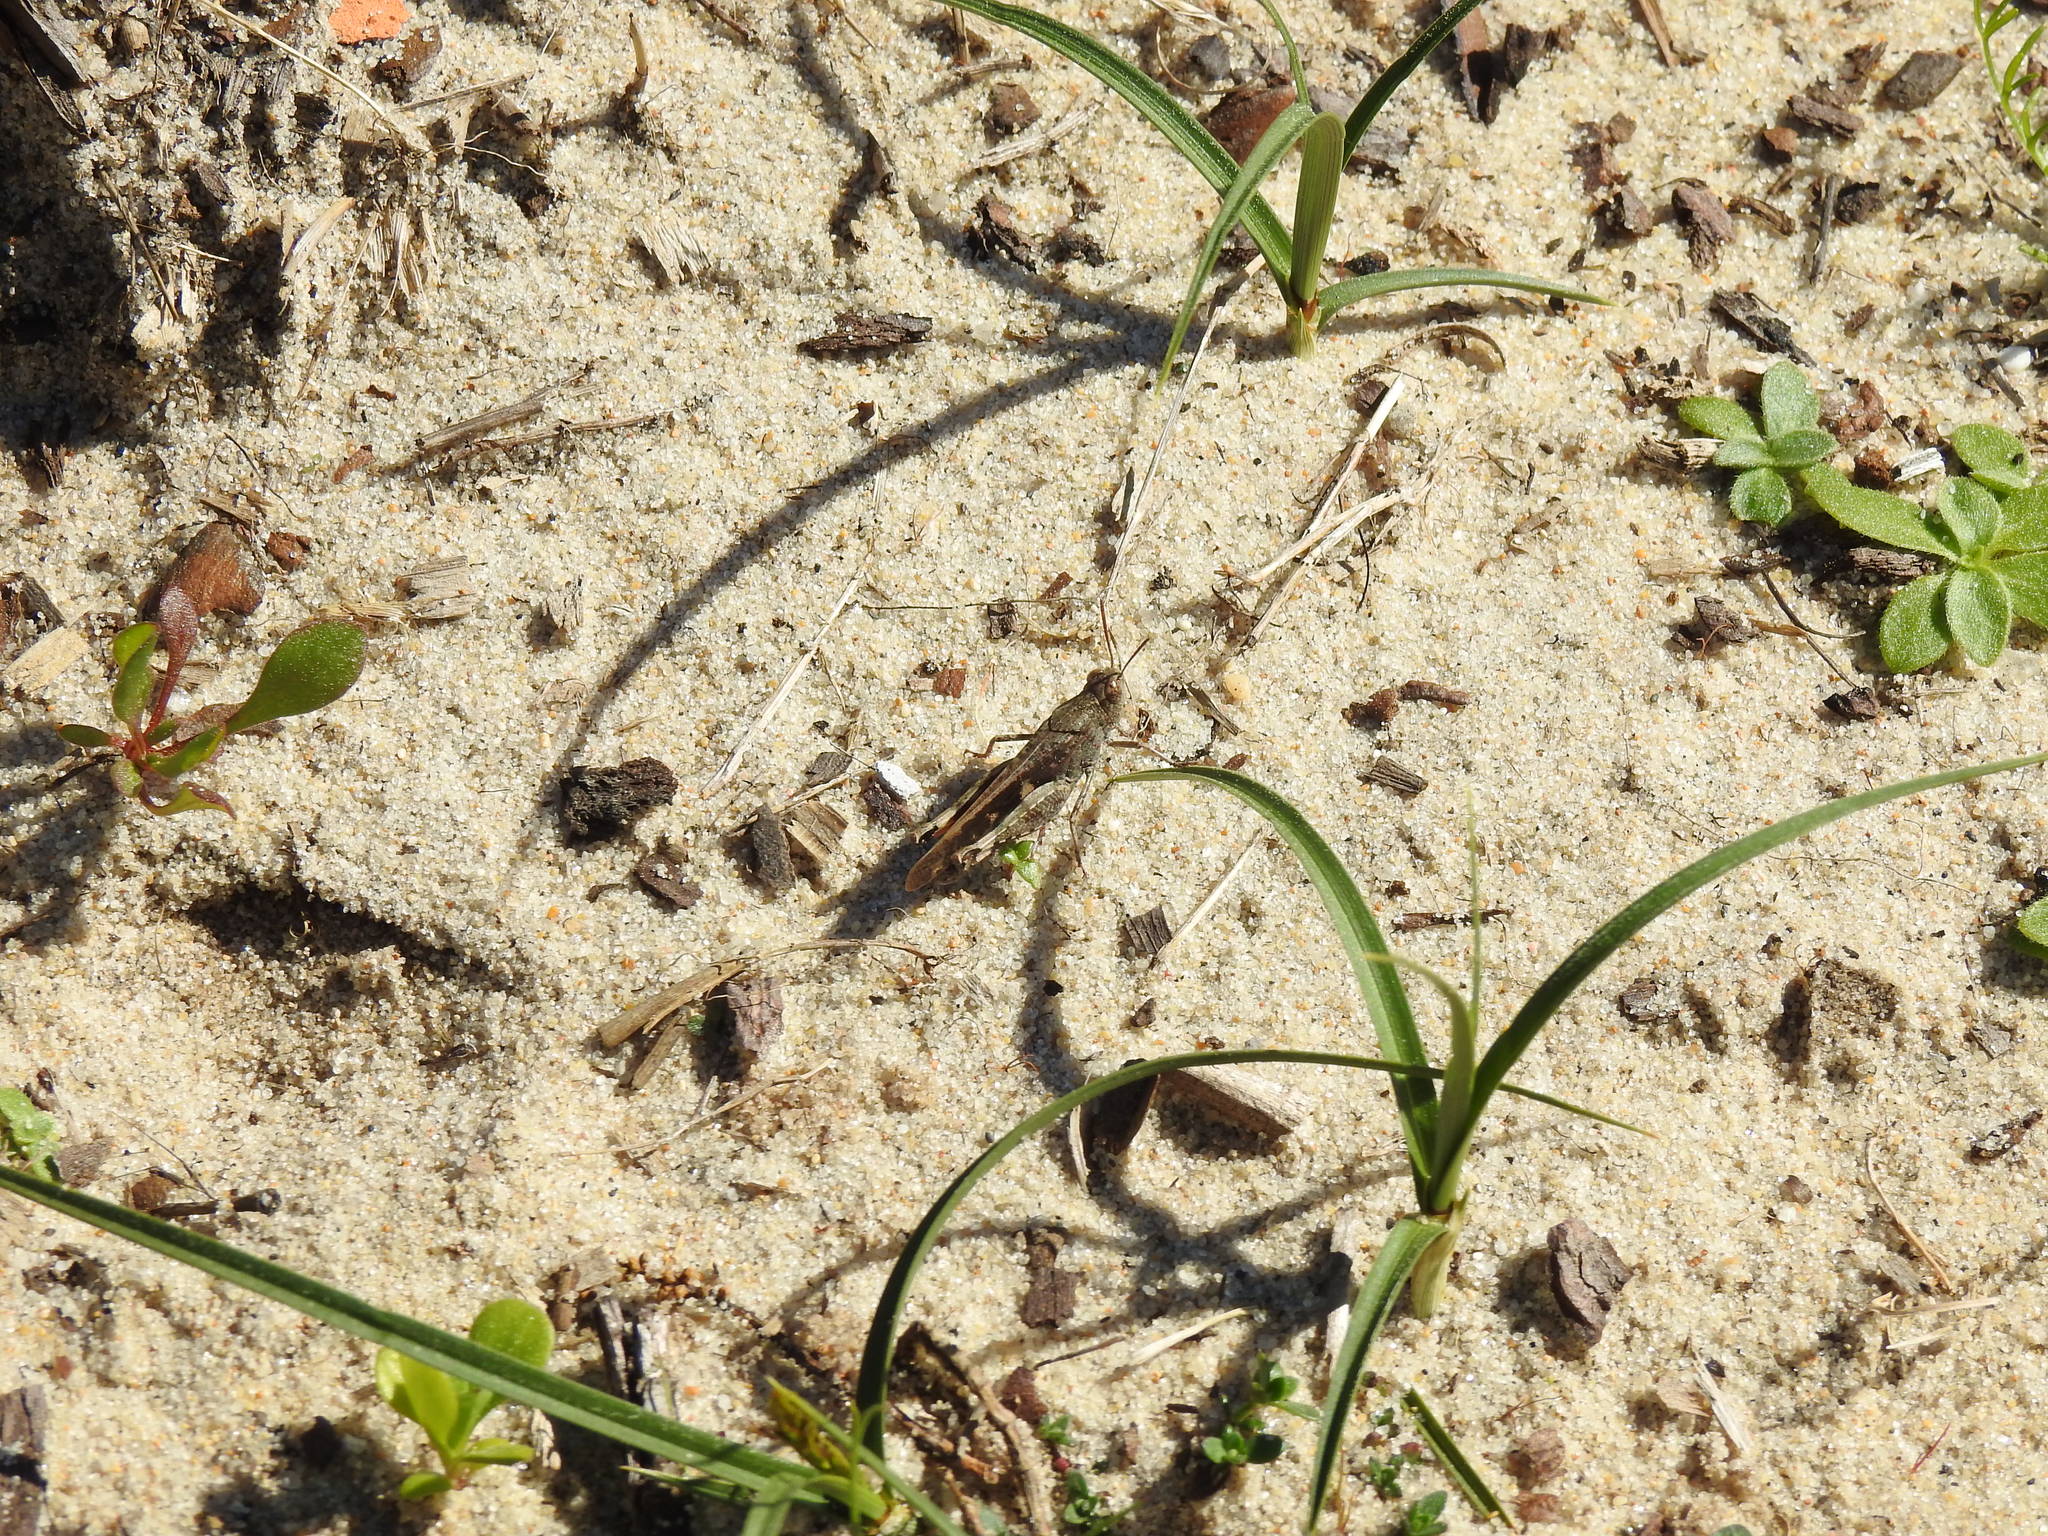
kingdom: Animalia
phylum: Arthropoda
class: Insecta
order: Orthoptera
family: Acrididae
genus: Aiolopus
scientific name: Aiolopus strepens
